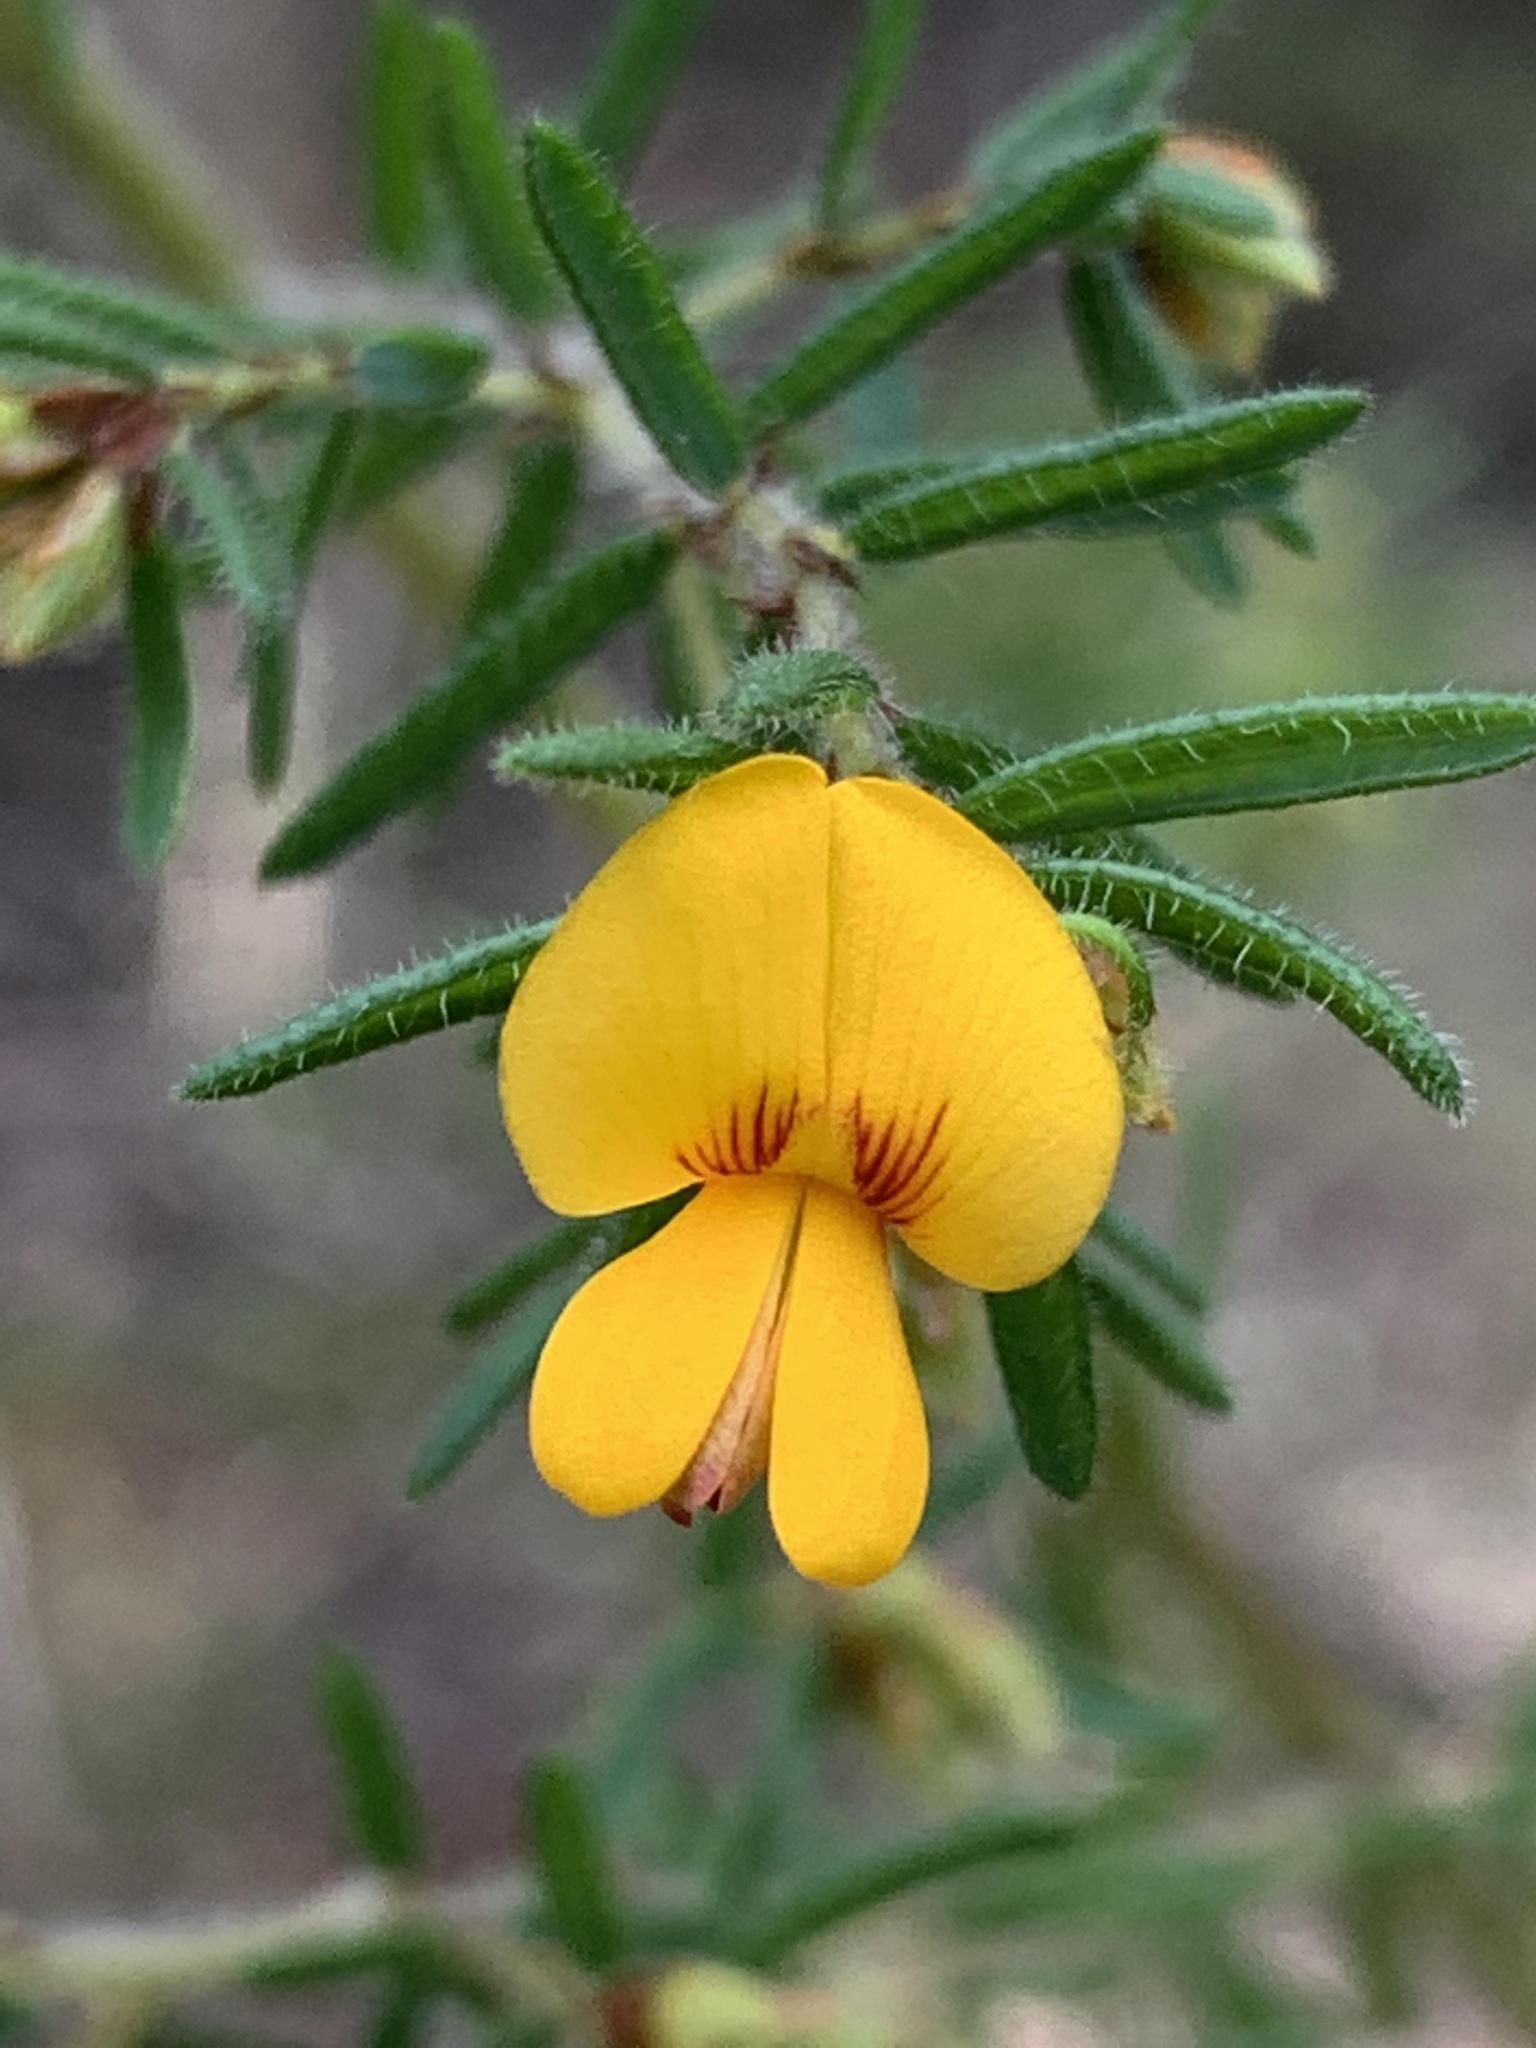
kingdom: Plantae
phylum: Tracheophyta
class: Magnoliopsida
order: Fabales
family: Fabaceae
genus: Pultenaea
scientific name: Pultenaea villosa
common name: Bronze bush-pea
